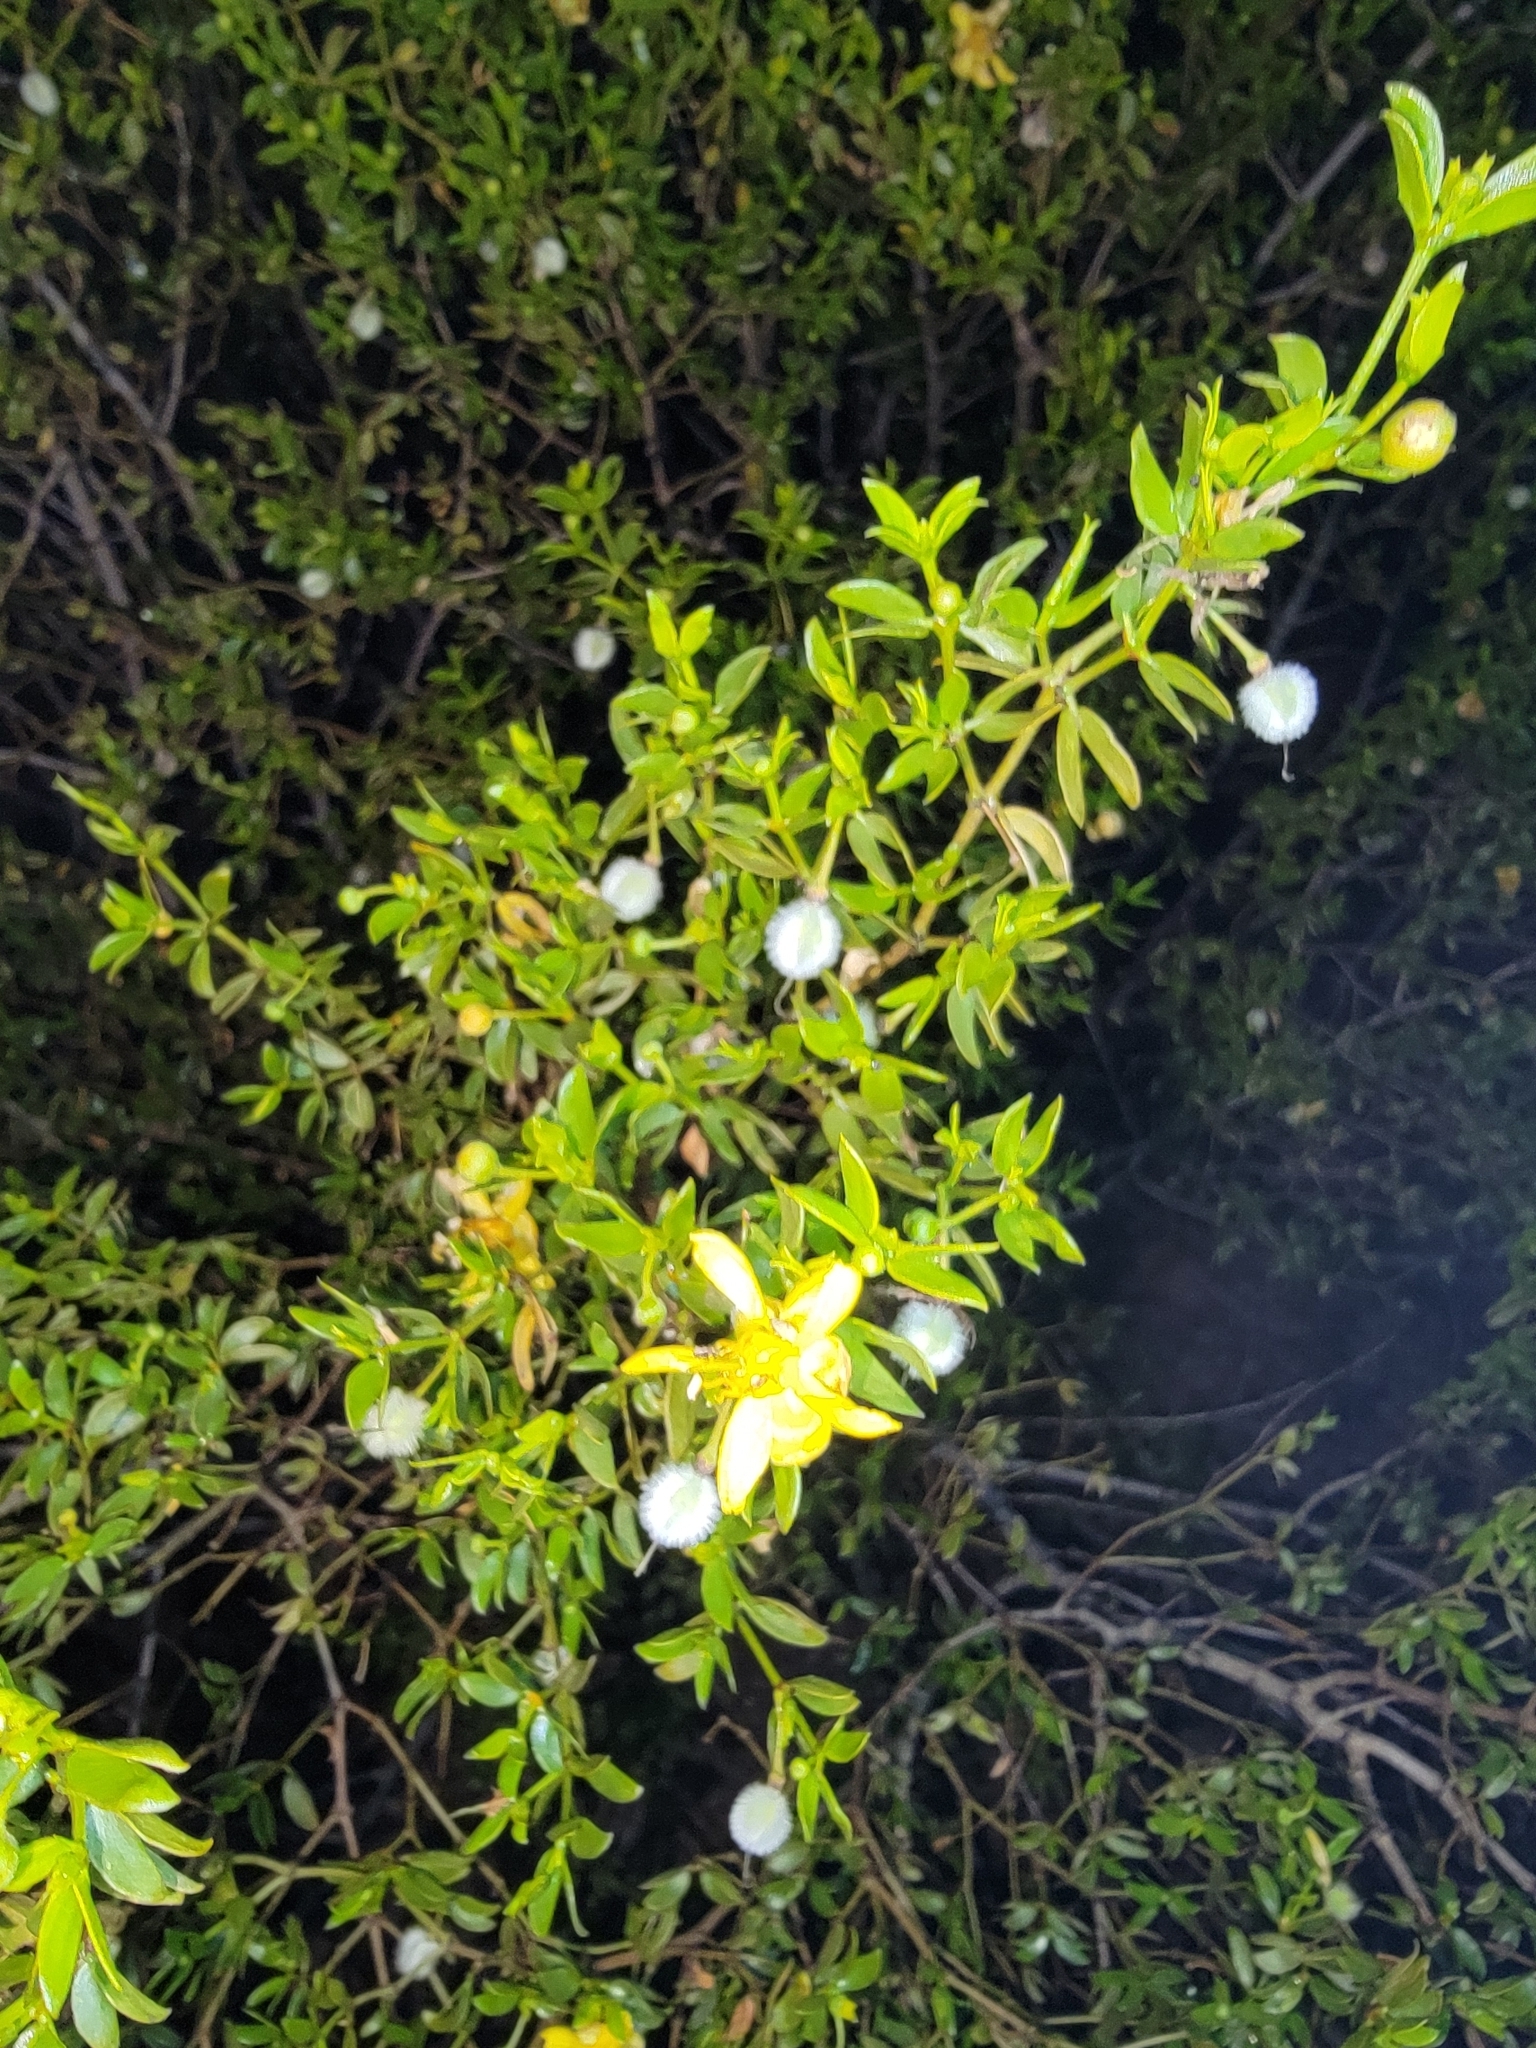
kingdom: Plantae
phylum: Tracheophyta
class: Magnoliopsida
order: Zygophyllales
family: Zygophyllaceae
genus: Larrea
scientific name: Larrea tridentata
